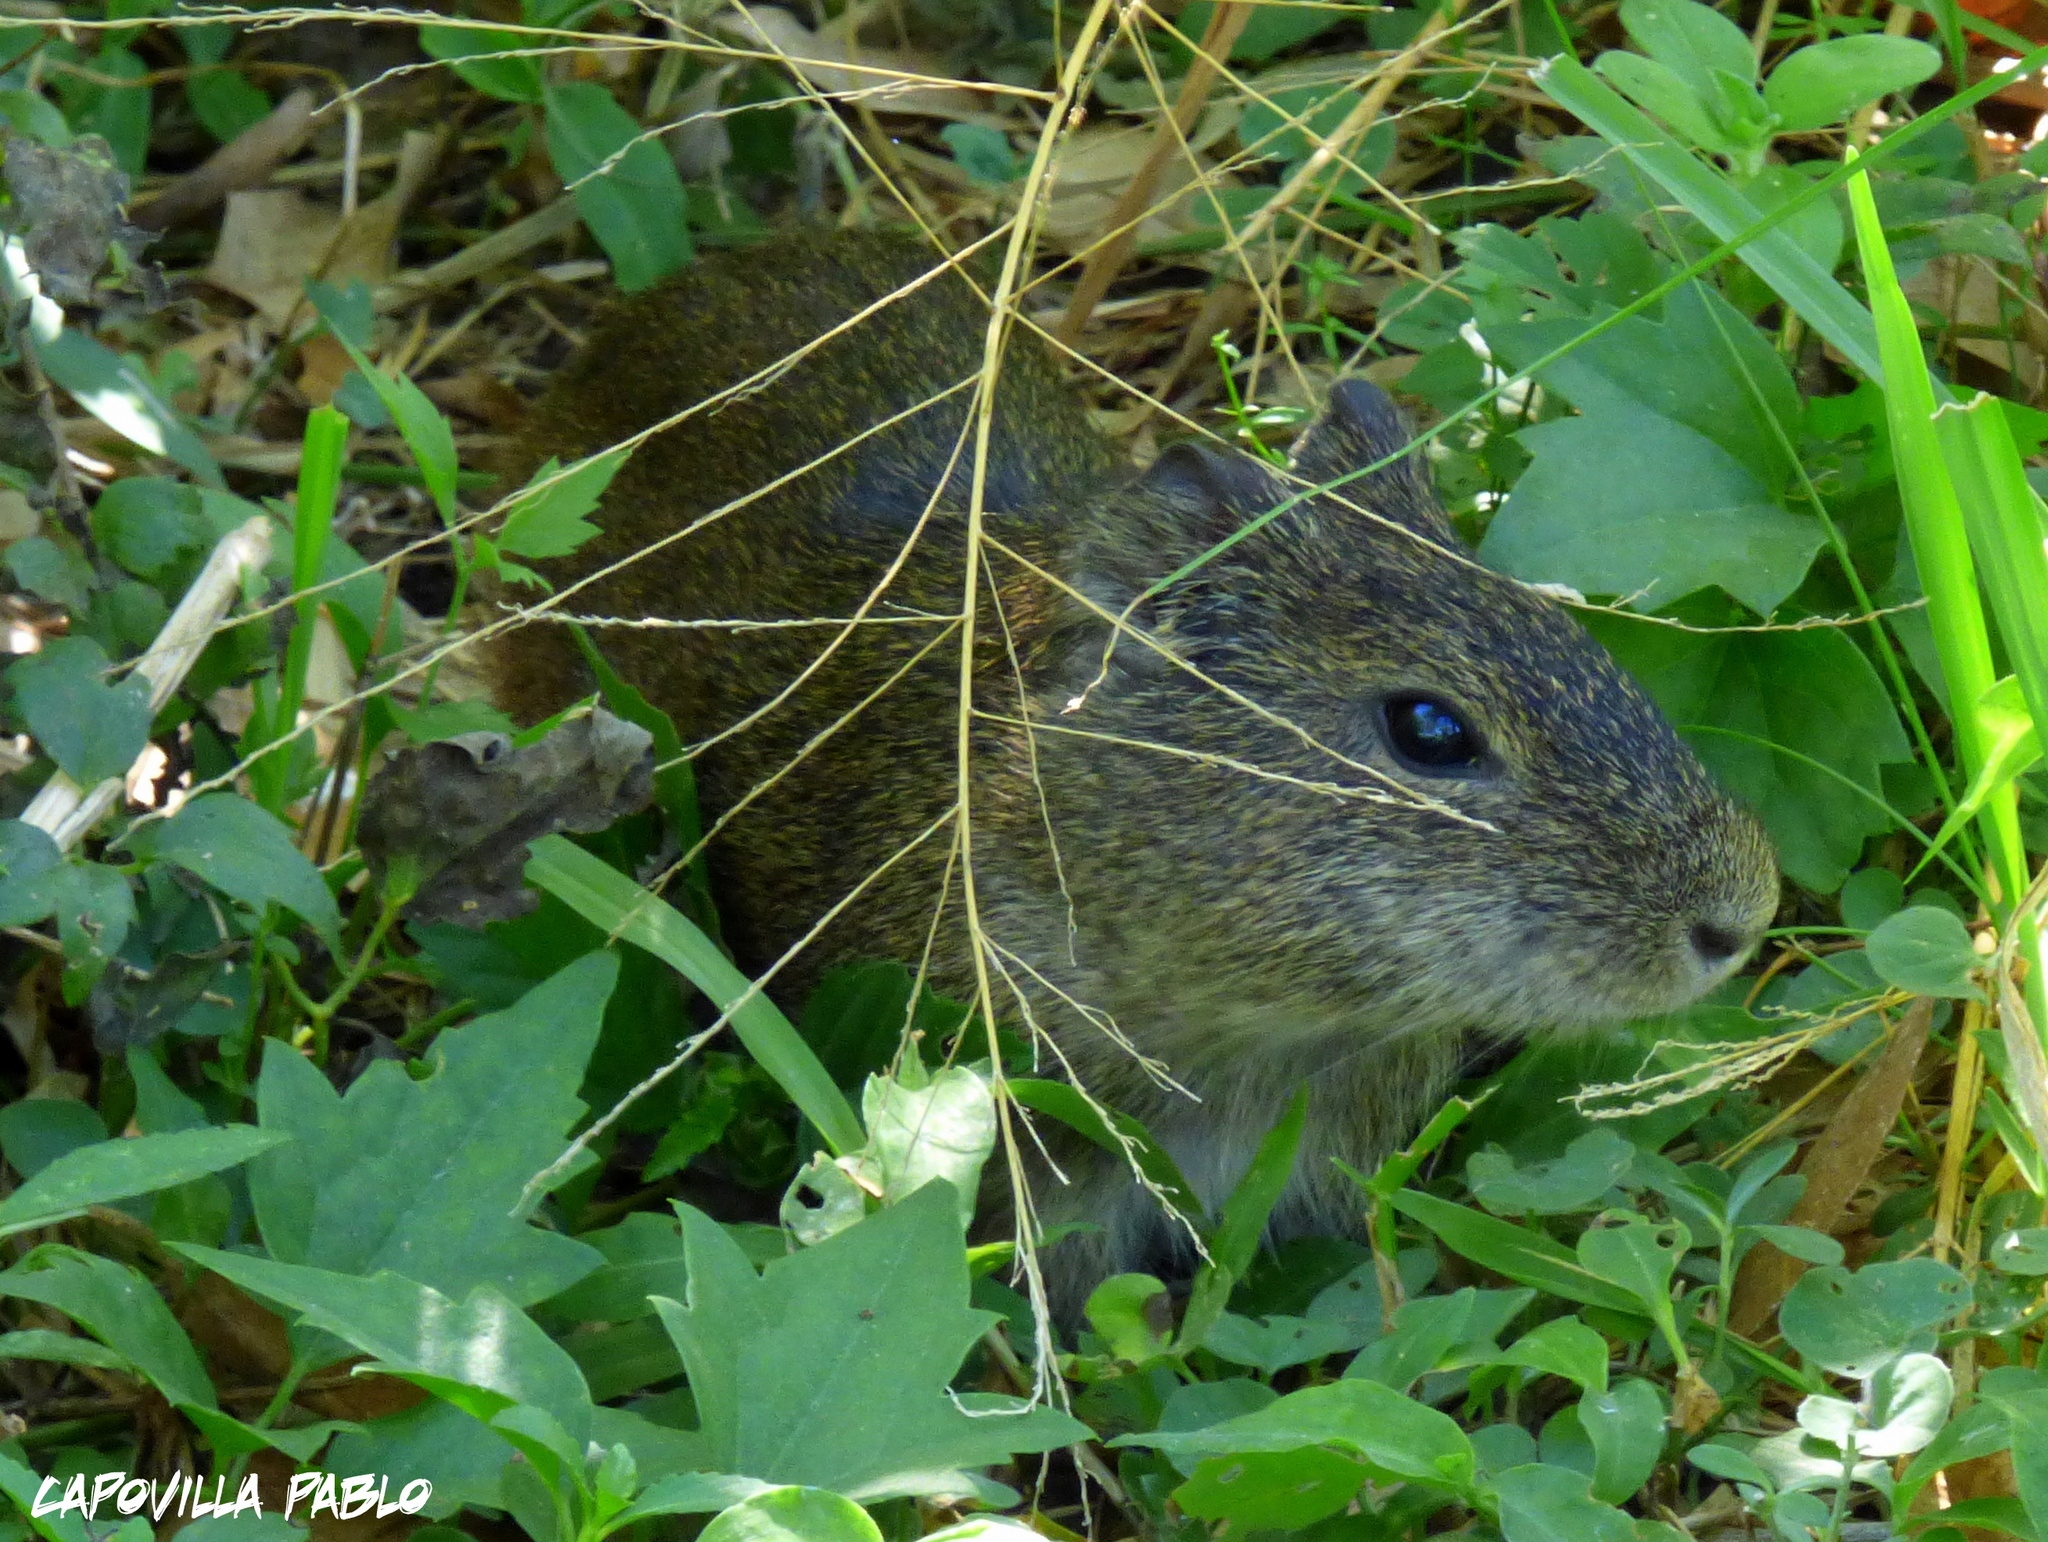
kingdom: Animalia
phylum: Chordata
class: Mammalia
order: Rodentia
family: Caviidae
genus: Cavia
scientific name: Cavia aperea
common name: Brazilian guinea pig
